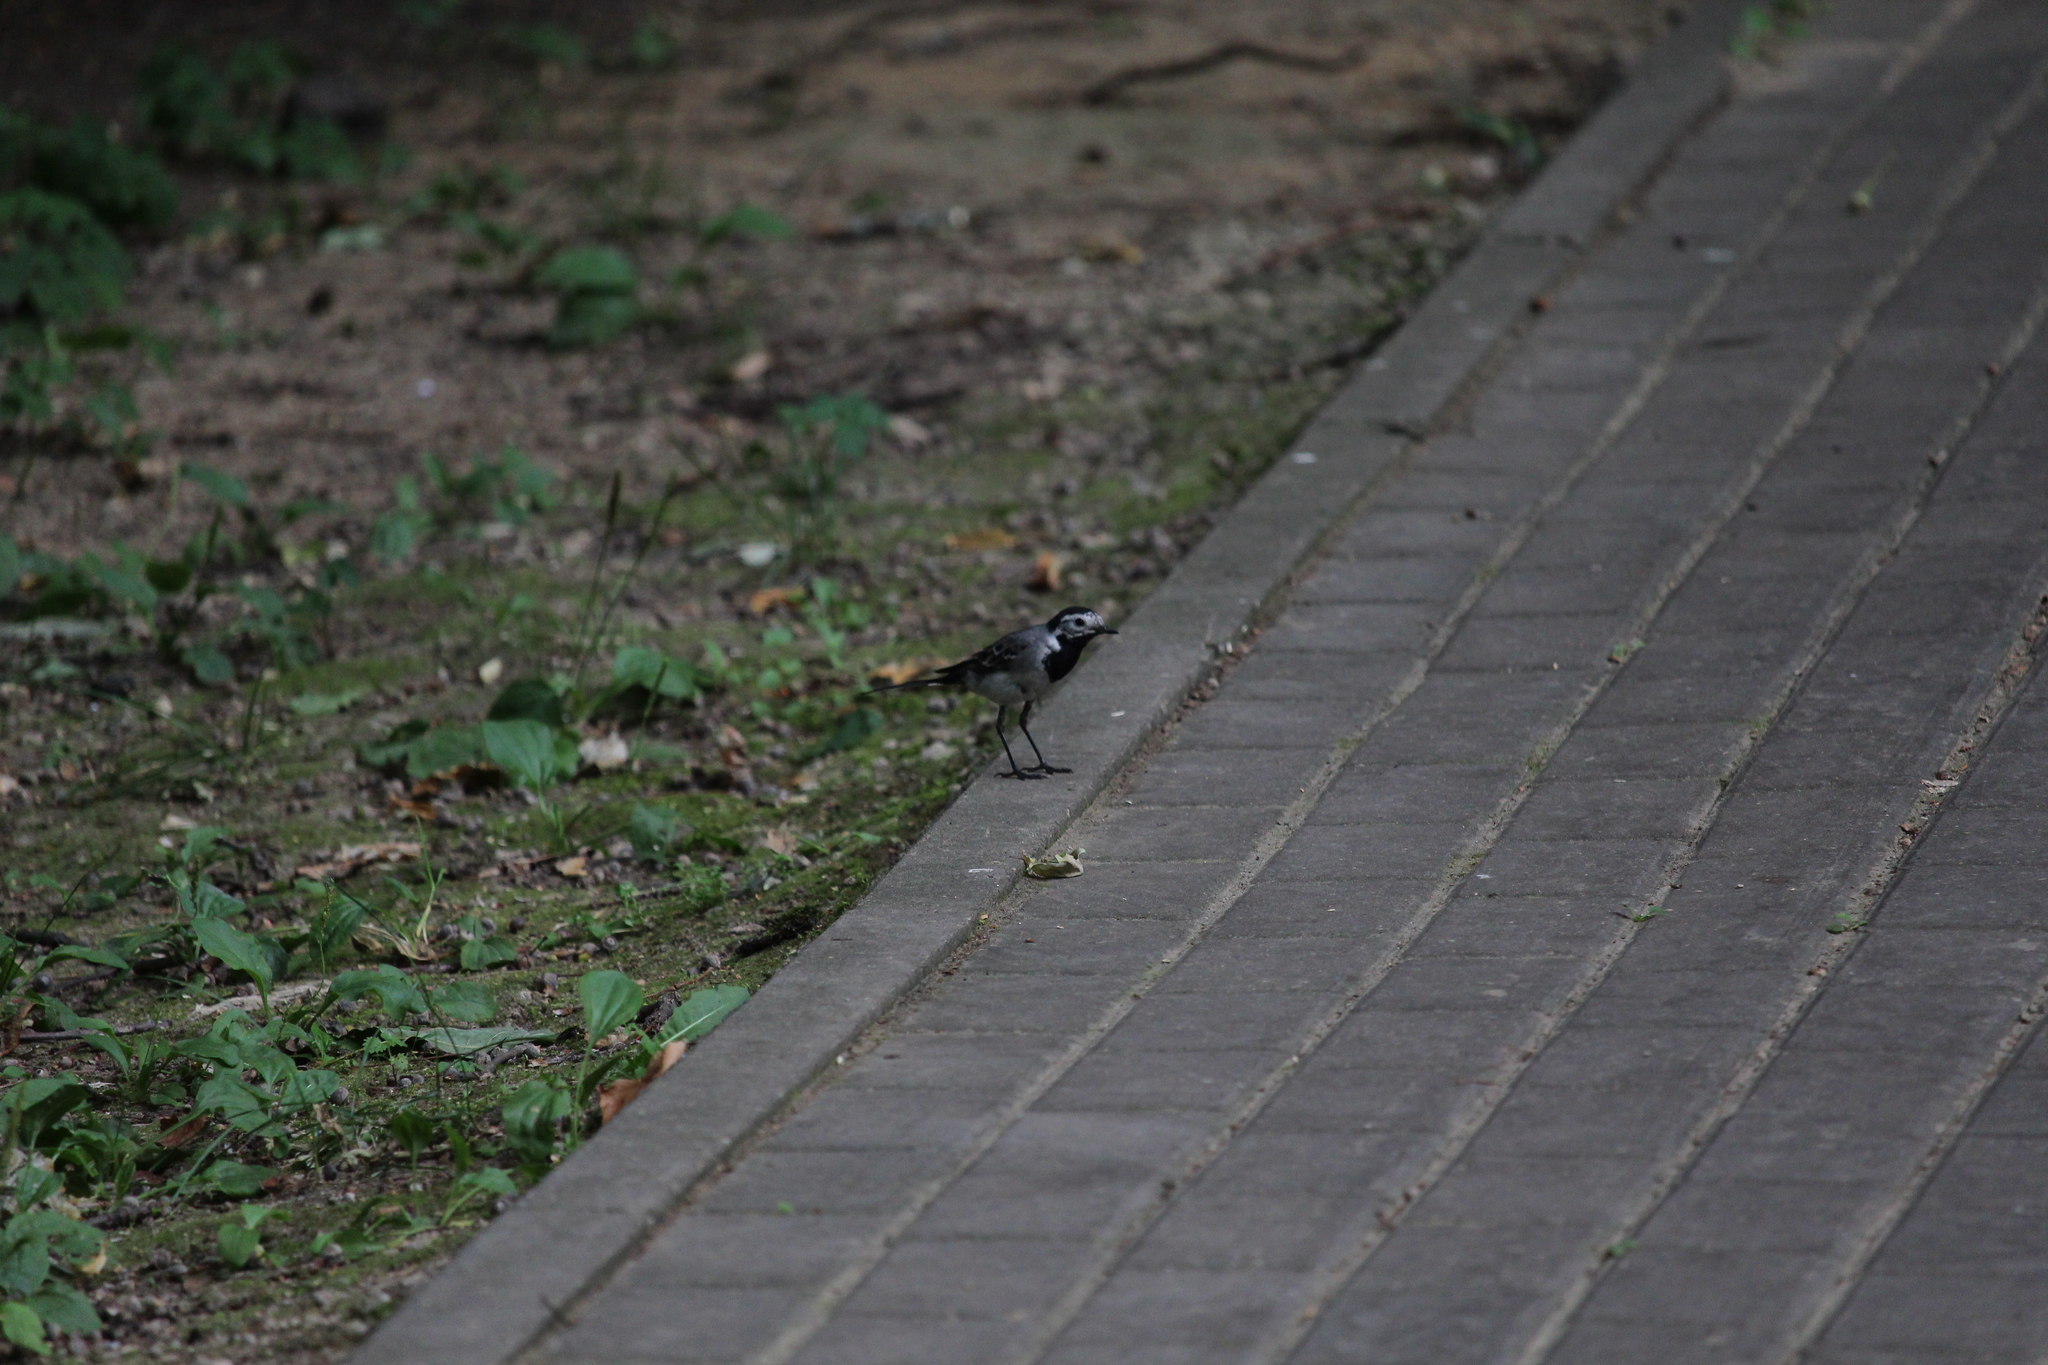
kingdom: Animalia
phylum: Chordata
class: Aves
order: Passeriformes
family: Motacillidae
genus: Motacilla
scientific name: Motacilla alba
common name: White wagtail
